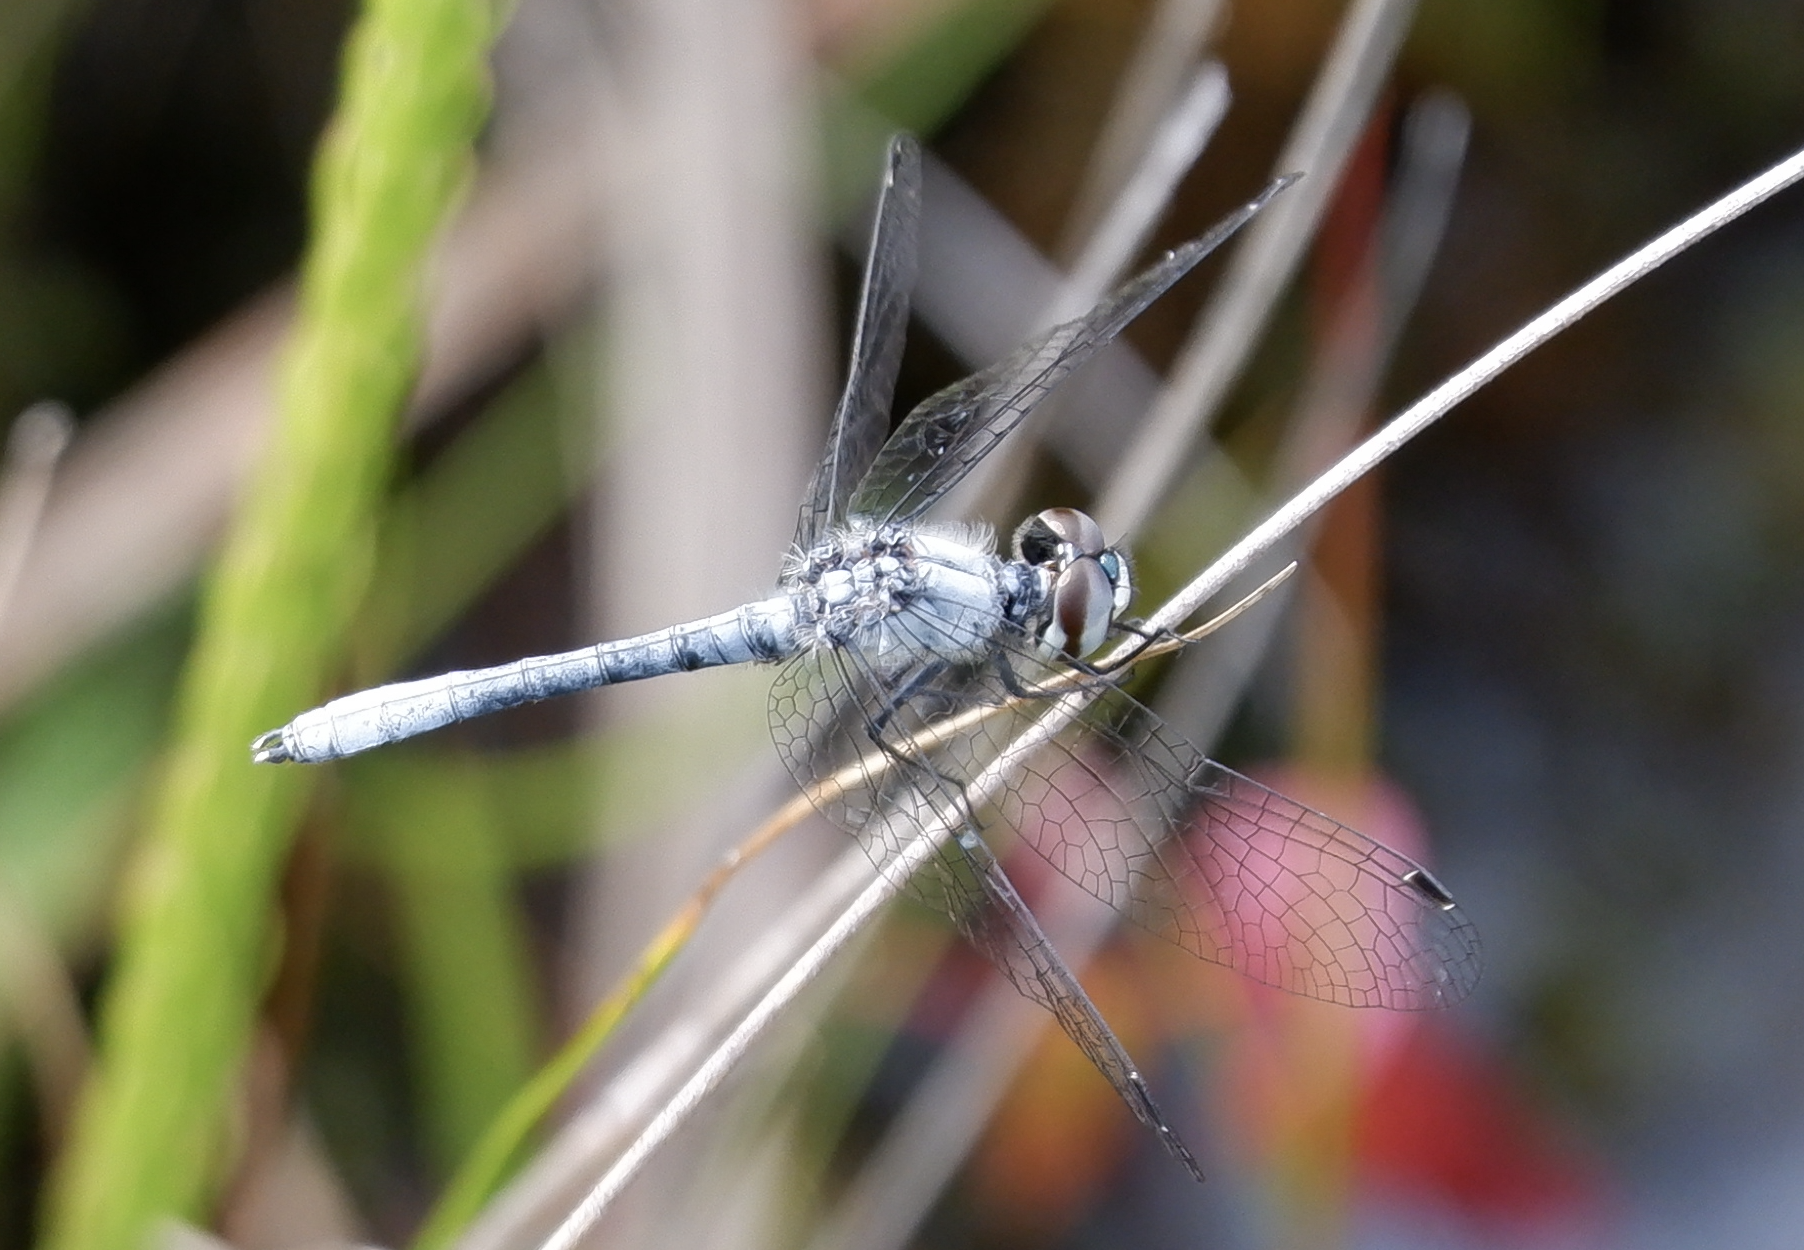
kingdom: Animalia
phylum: Arthropoda
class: Insecta
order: Odonata
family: Libellulidae
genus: Nannothemis
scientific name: Nannothemis bella
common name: Elfin skimmer
